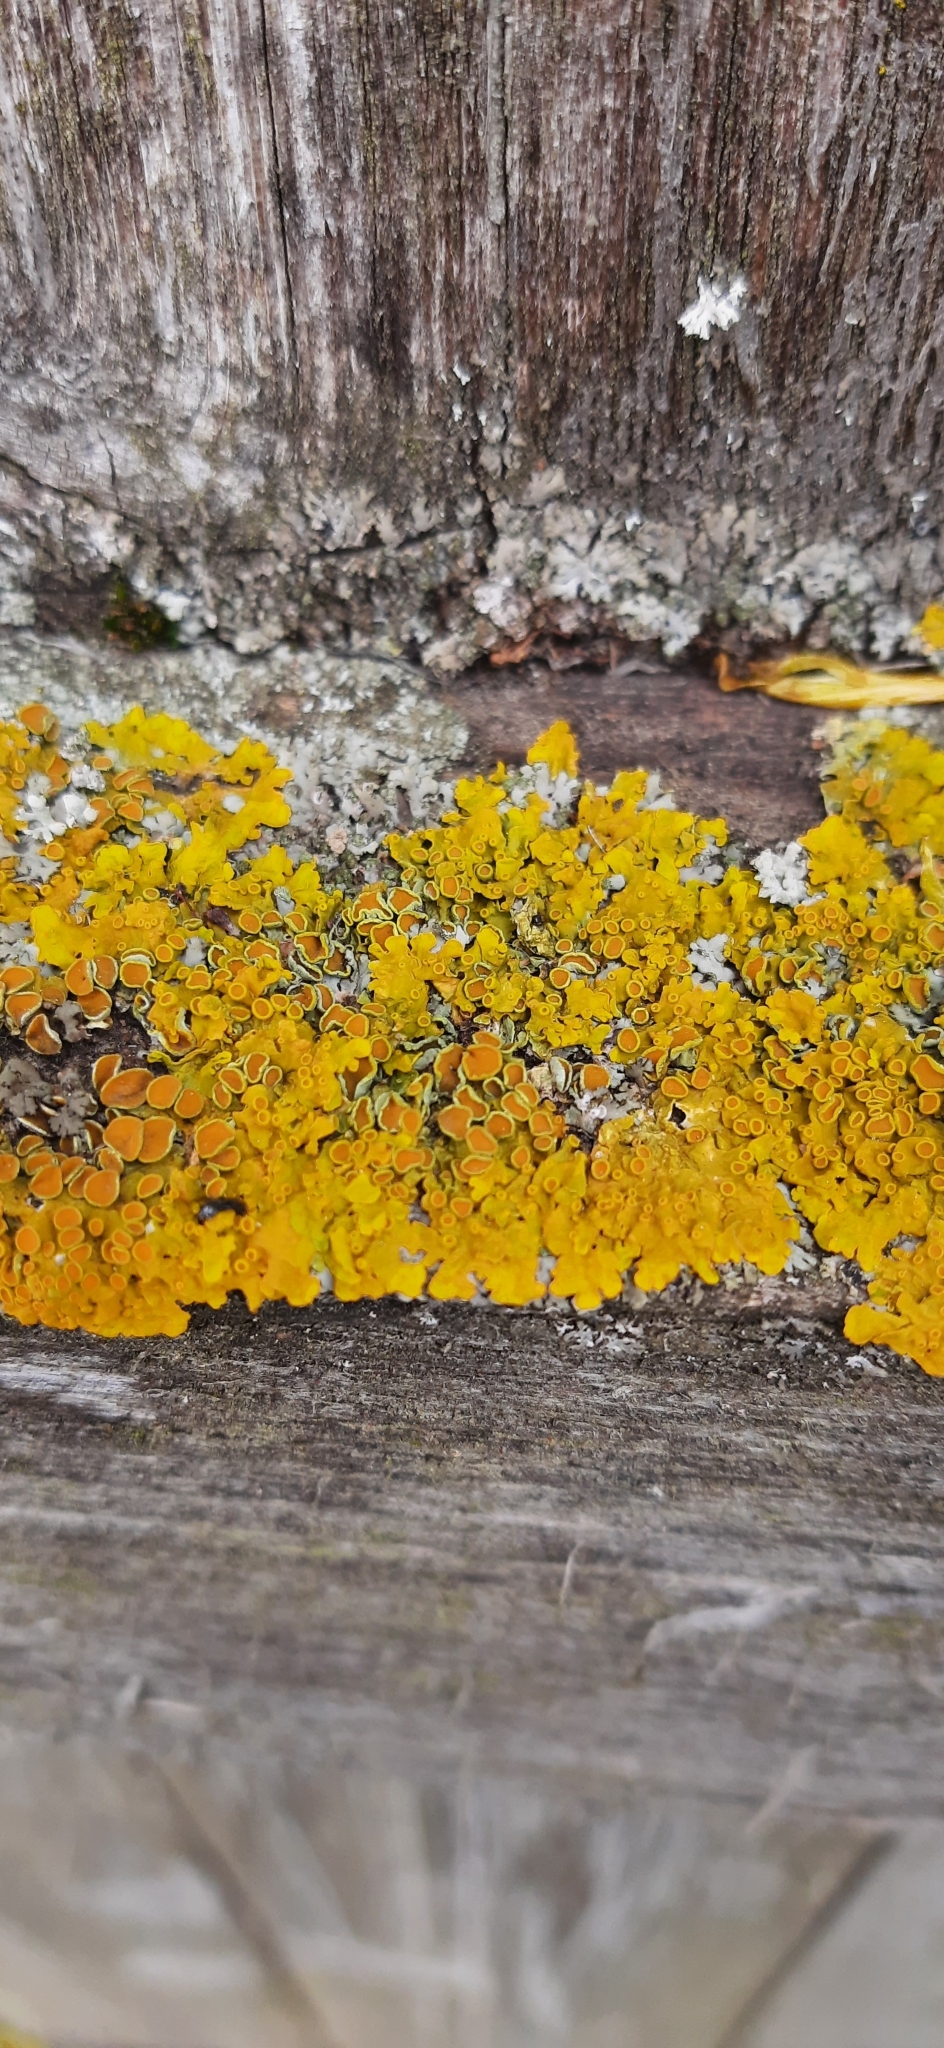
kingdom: Fungi
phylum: Ascomycota
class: Lecanoromycetes
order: Teloschistales
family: Teloschistaceae
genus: Xanthoria
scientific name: Xanthoria parietina
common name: Common orange lichen
